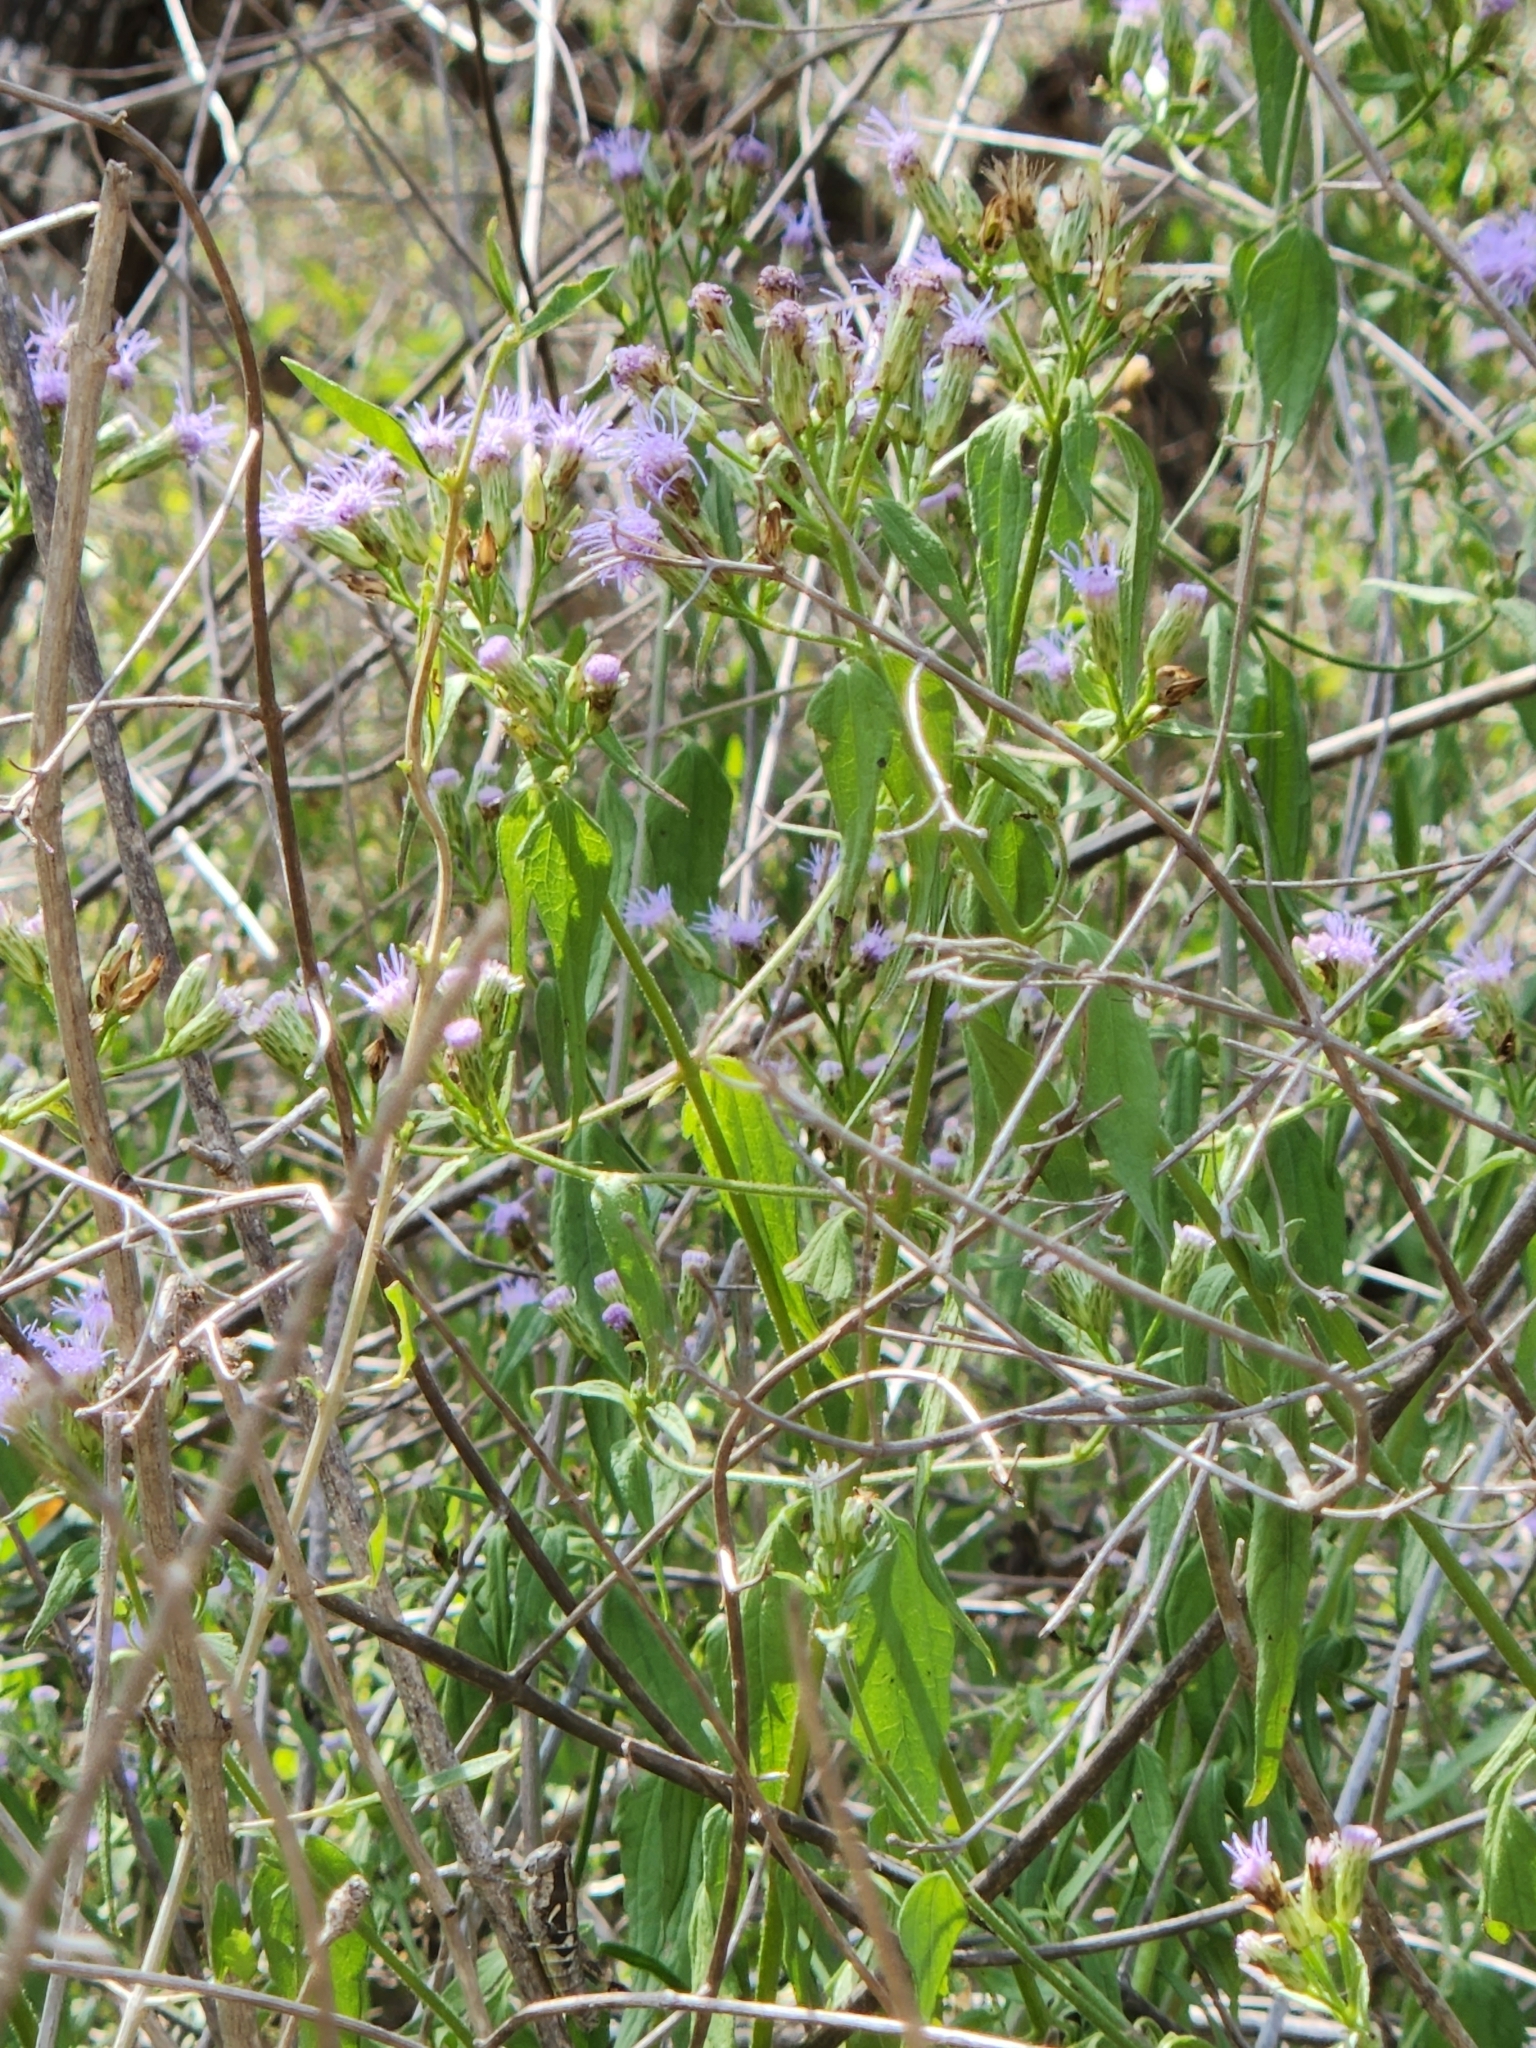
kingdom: Plantae
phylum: Tracheophyta
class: Magnoliopsida
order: Asterales
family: Asteraceae
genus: Chromolaena
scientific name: Chromolaena odorata
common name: Siamweed
